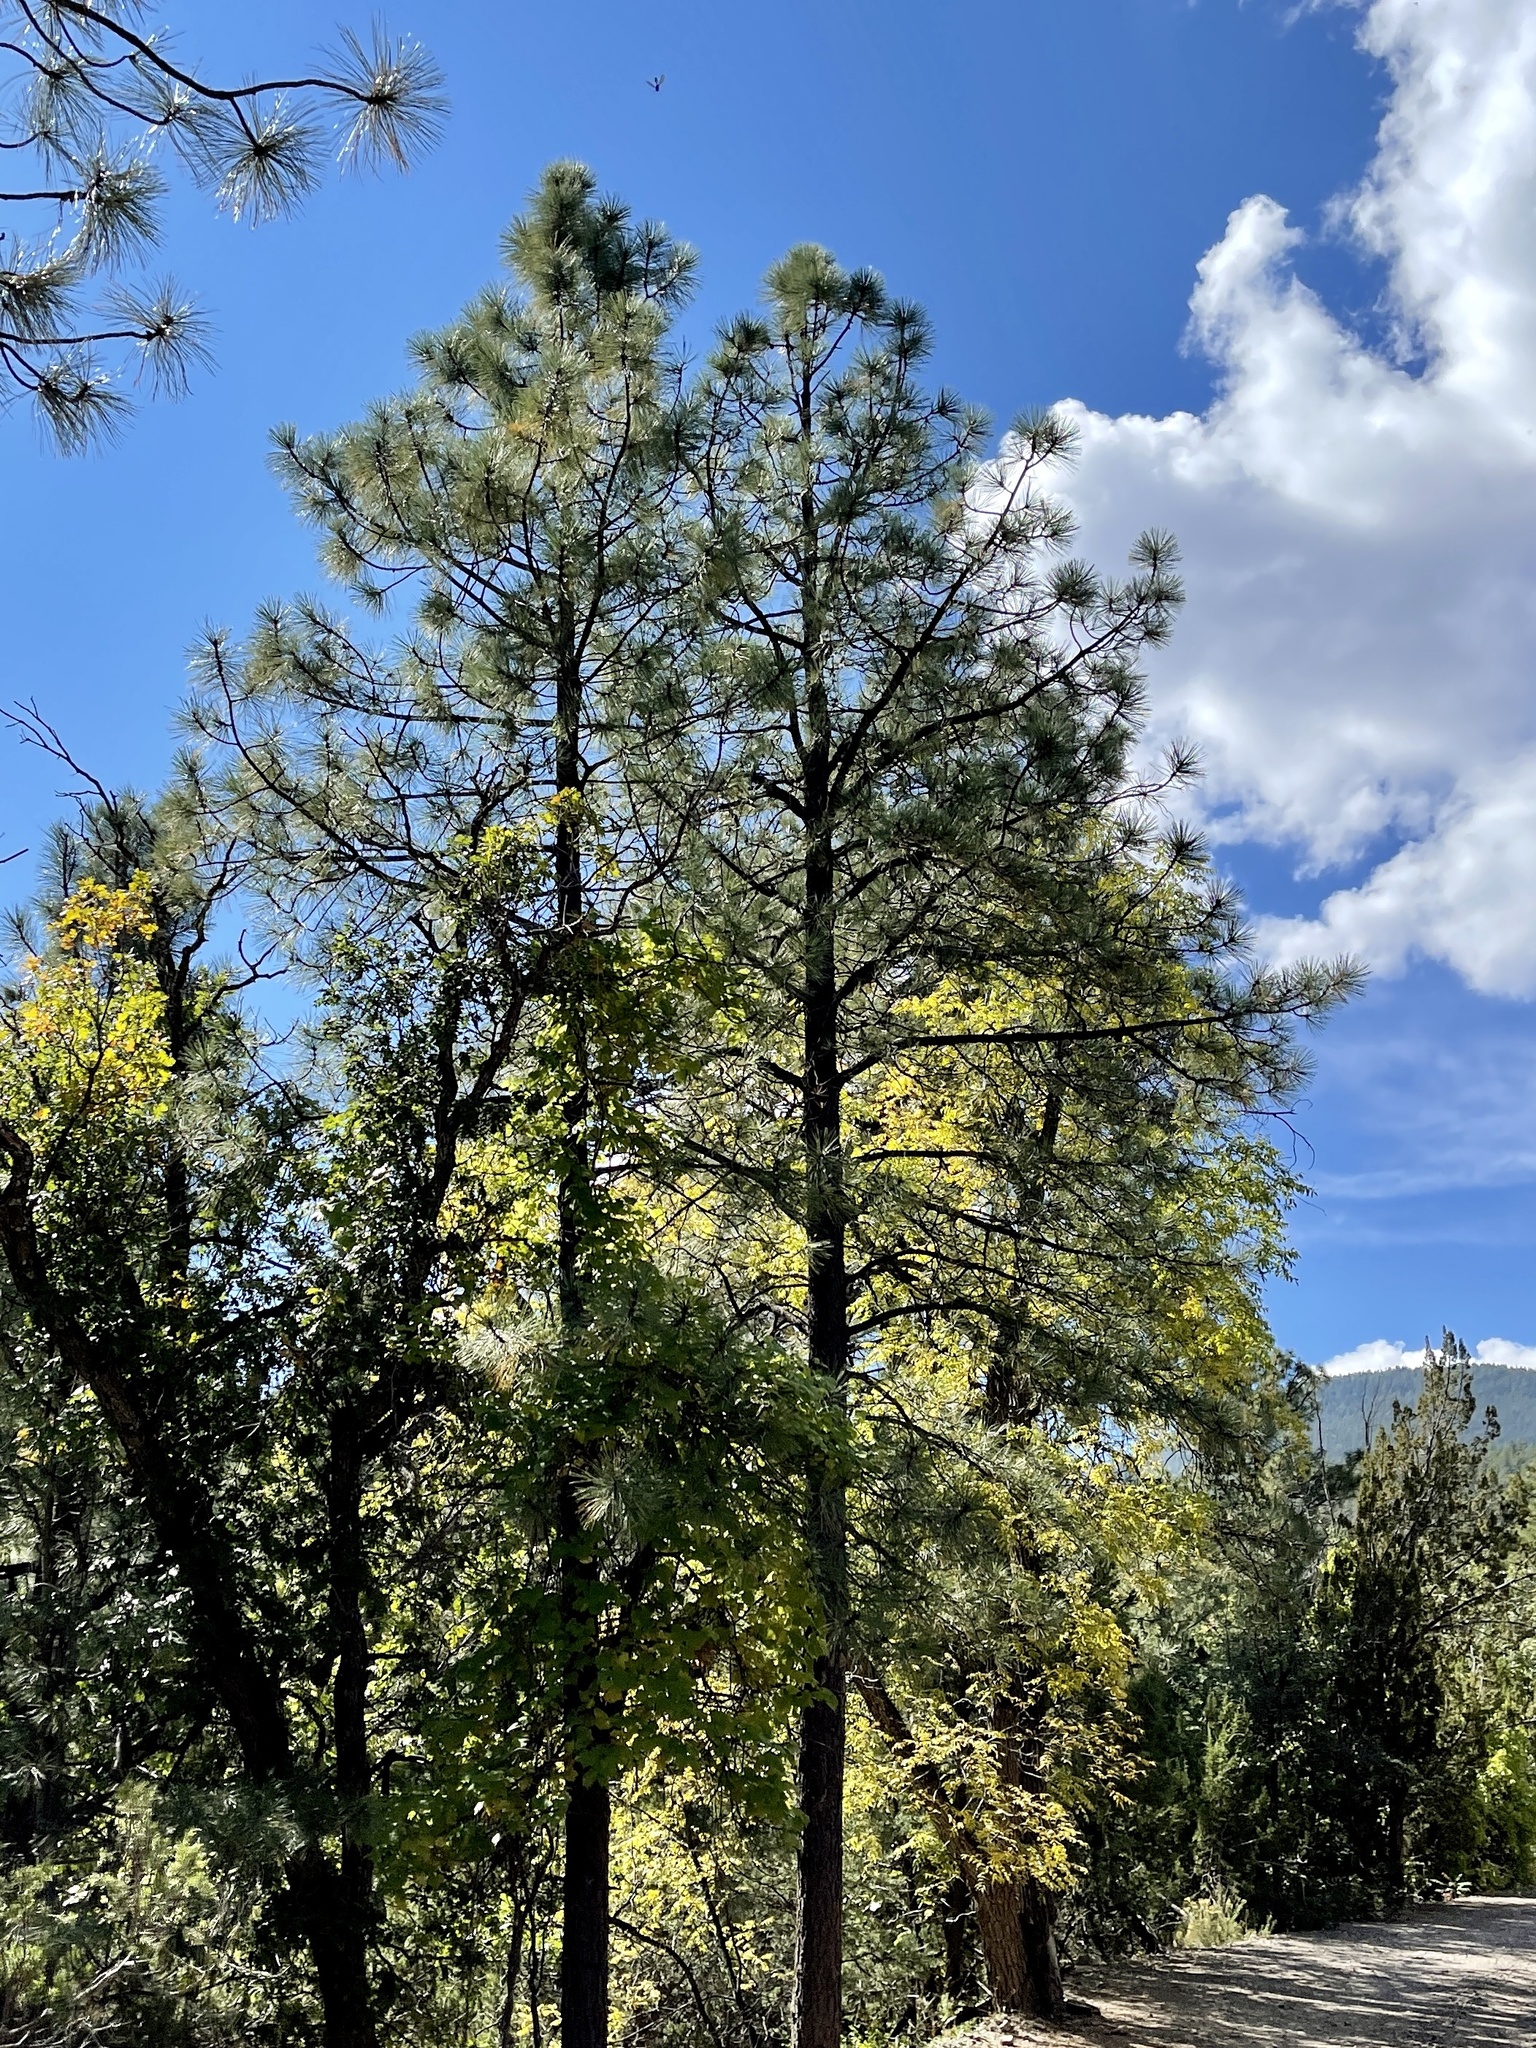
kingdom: Plantae
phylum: Tracheophyta
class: Pinopsida
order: Pinales
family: Pinaceae
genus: Pinus
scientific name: Pinus ponderosa
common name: Western yellow-pine
